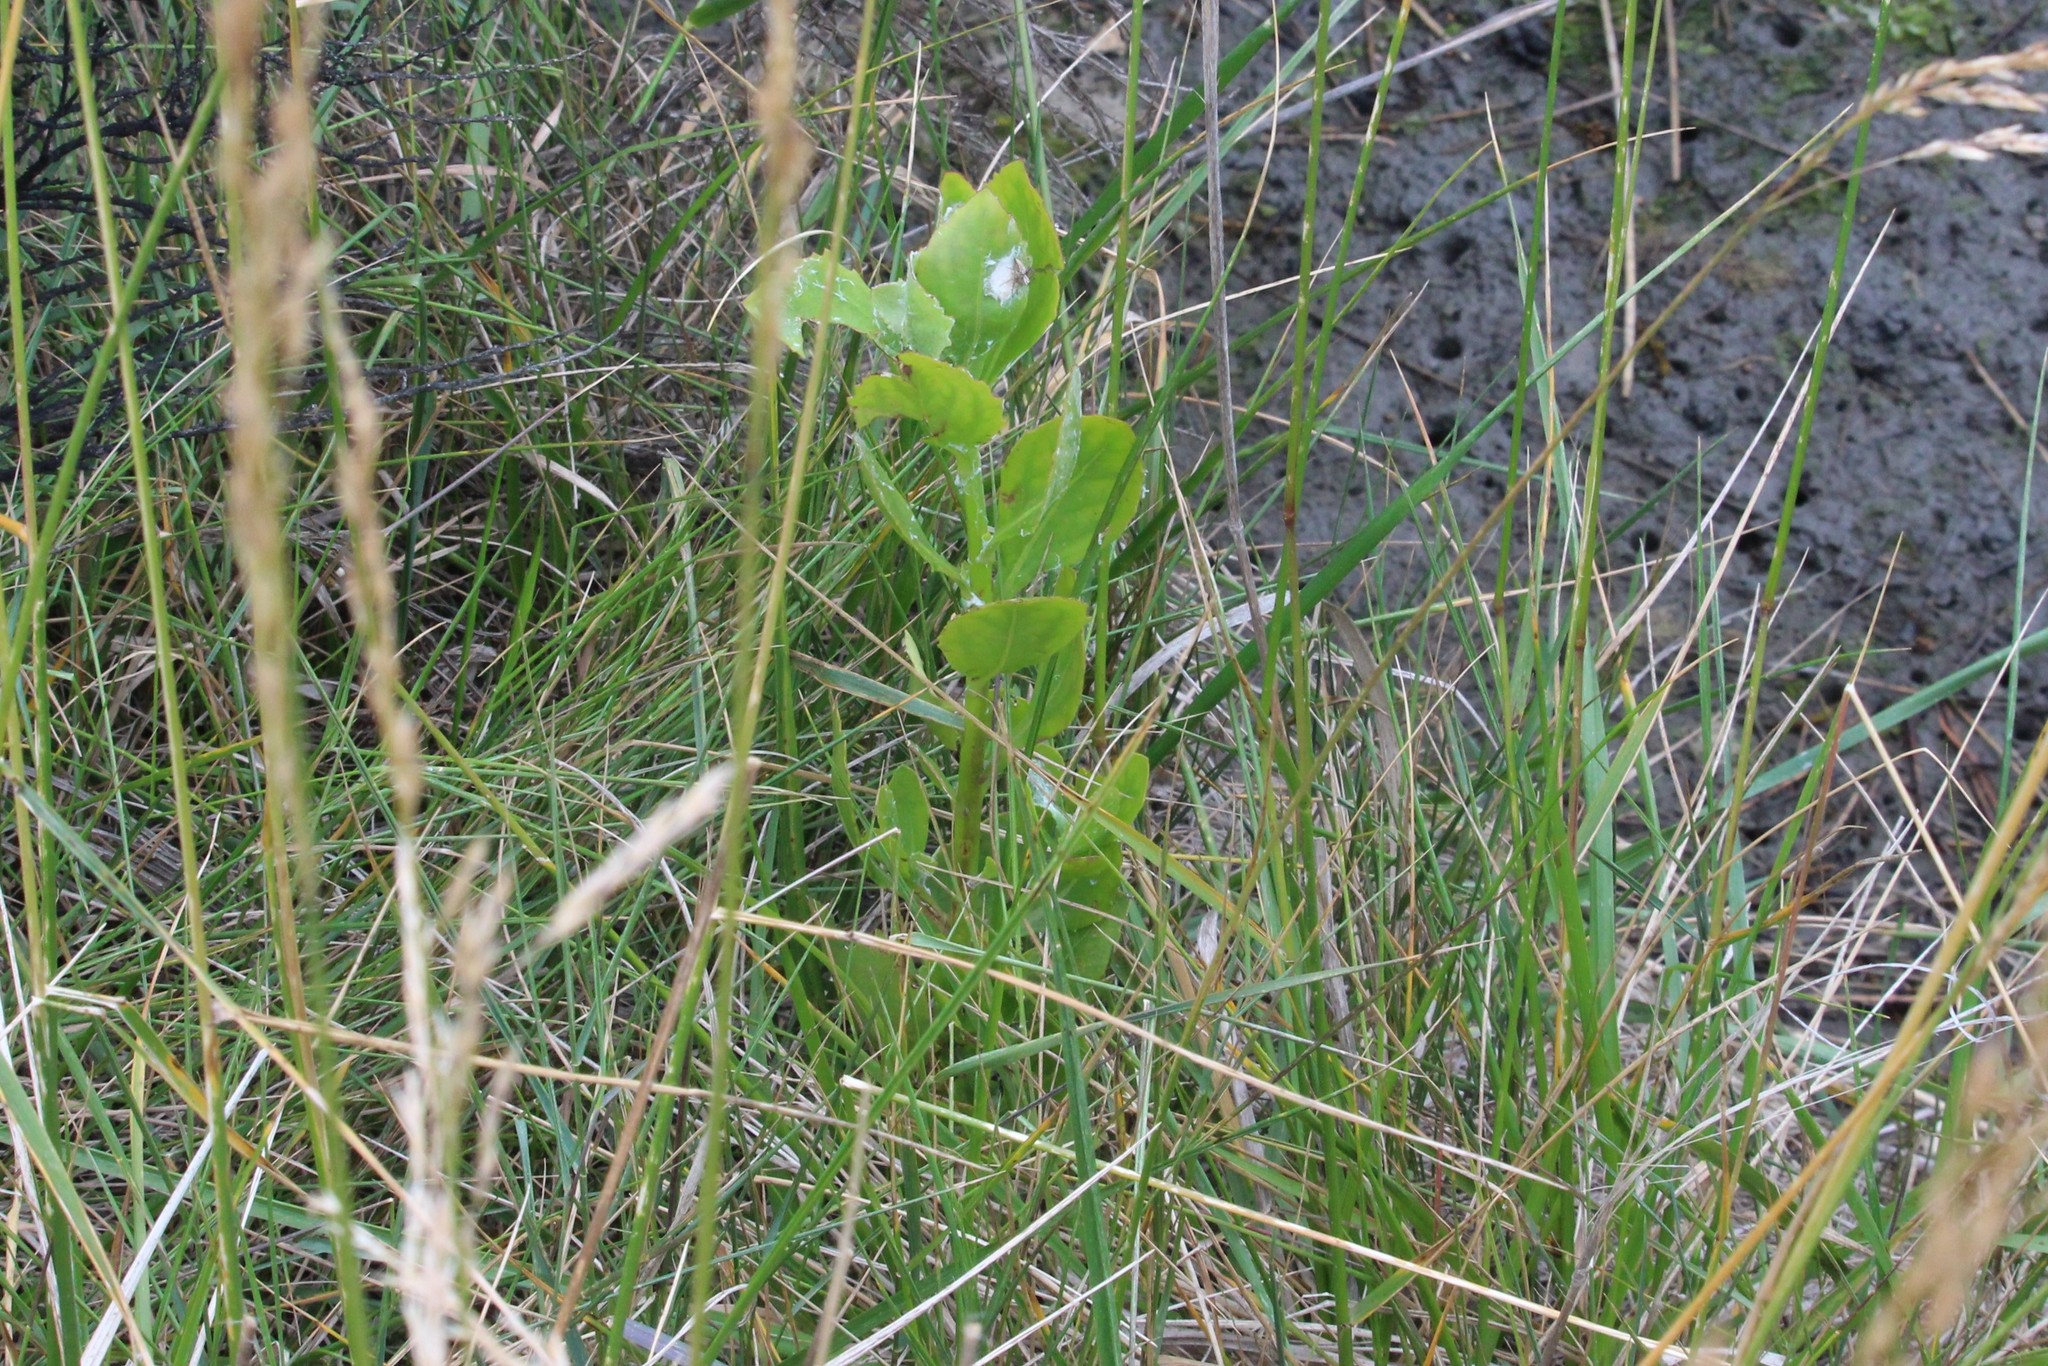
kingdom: Plantae
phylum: Tracheophyta
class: Magnoliopsida
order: Asterales
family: Asteraceae
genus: Osteospermum
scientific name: Osteospermum moniliferum
